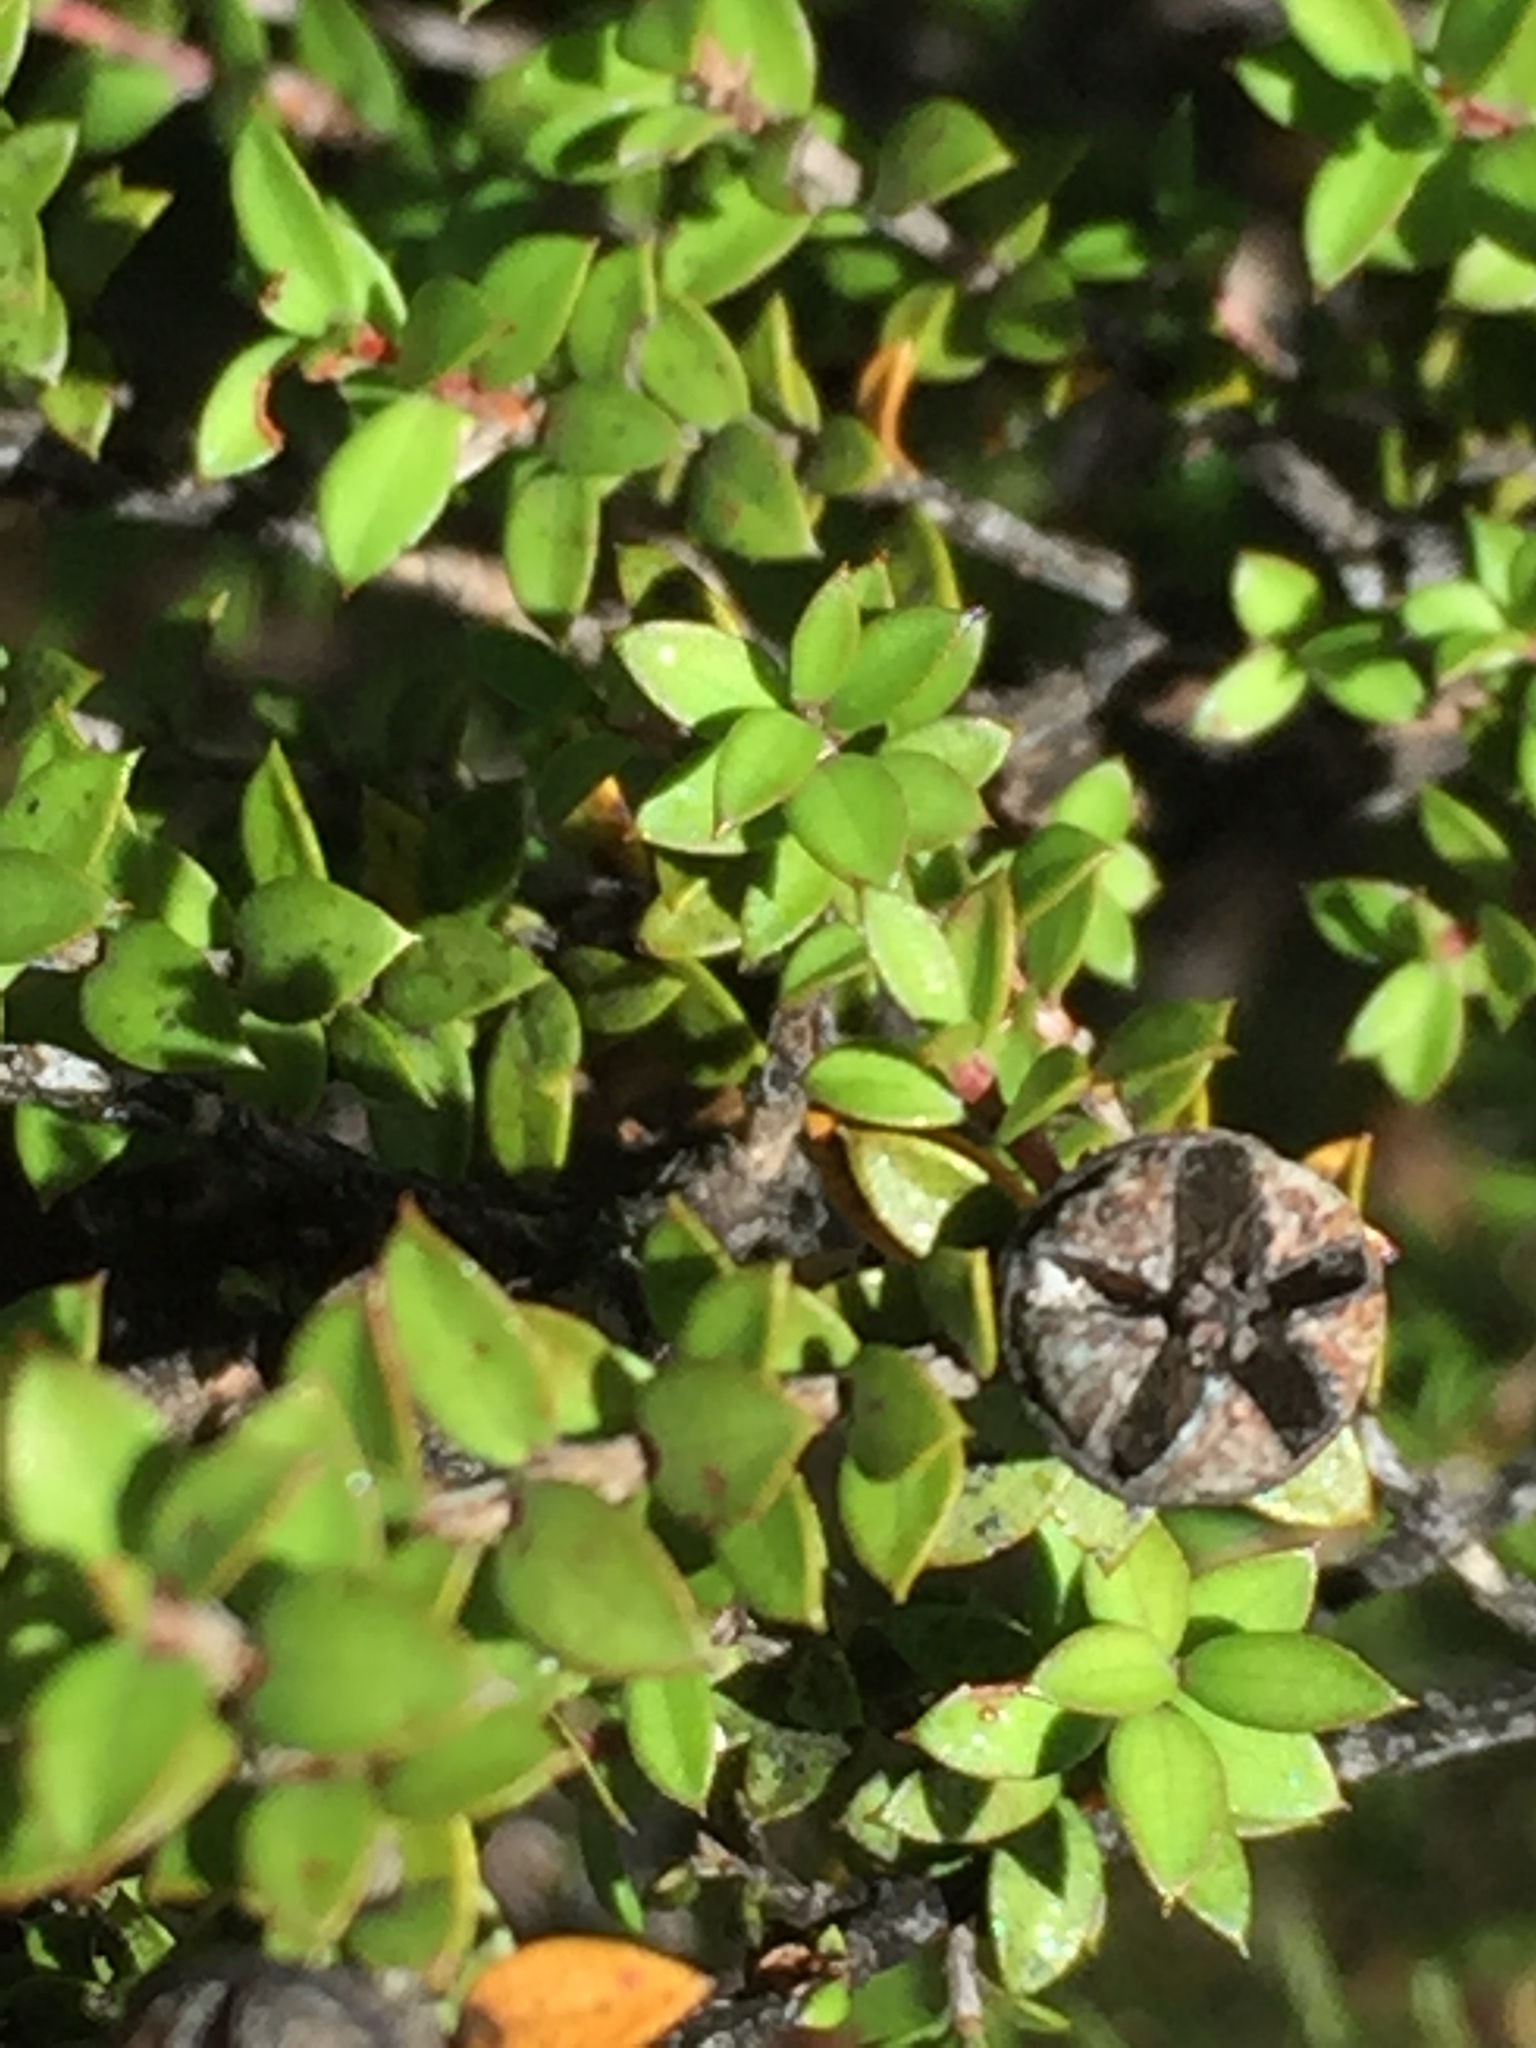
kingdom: Plantae
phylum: Tracheophyta
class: Magnoliopsida
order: Myrtales
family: Myrtaceae
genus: Leptospermum
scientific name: Leptospermum scoparium
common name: Broom tea-tree
